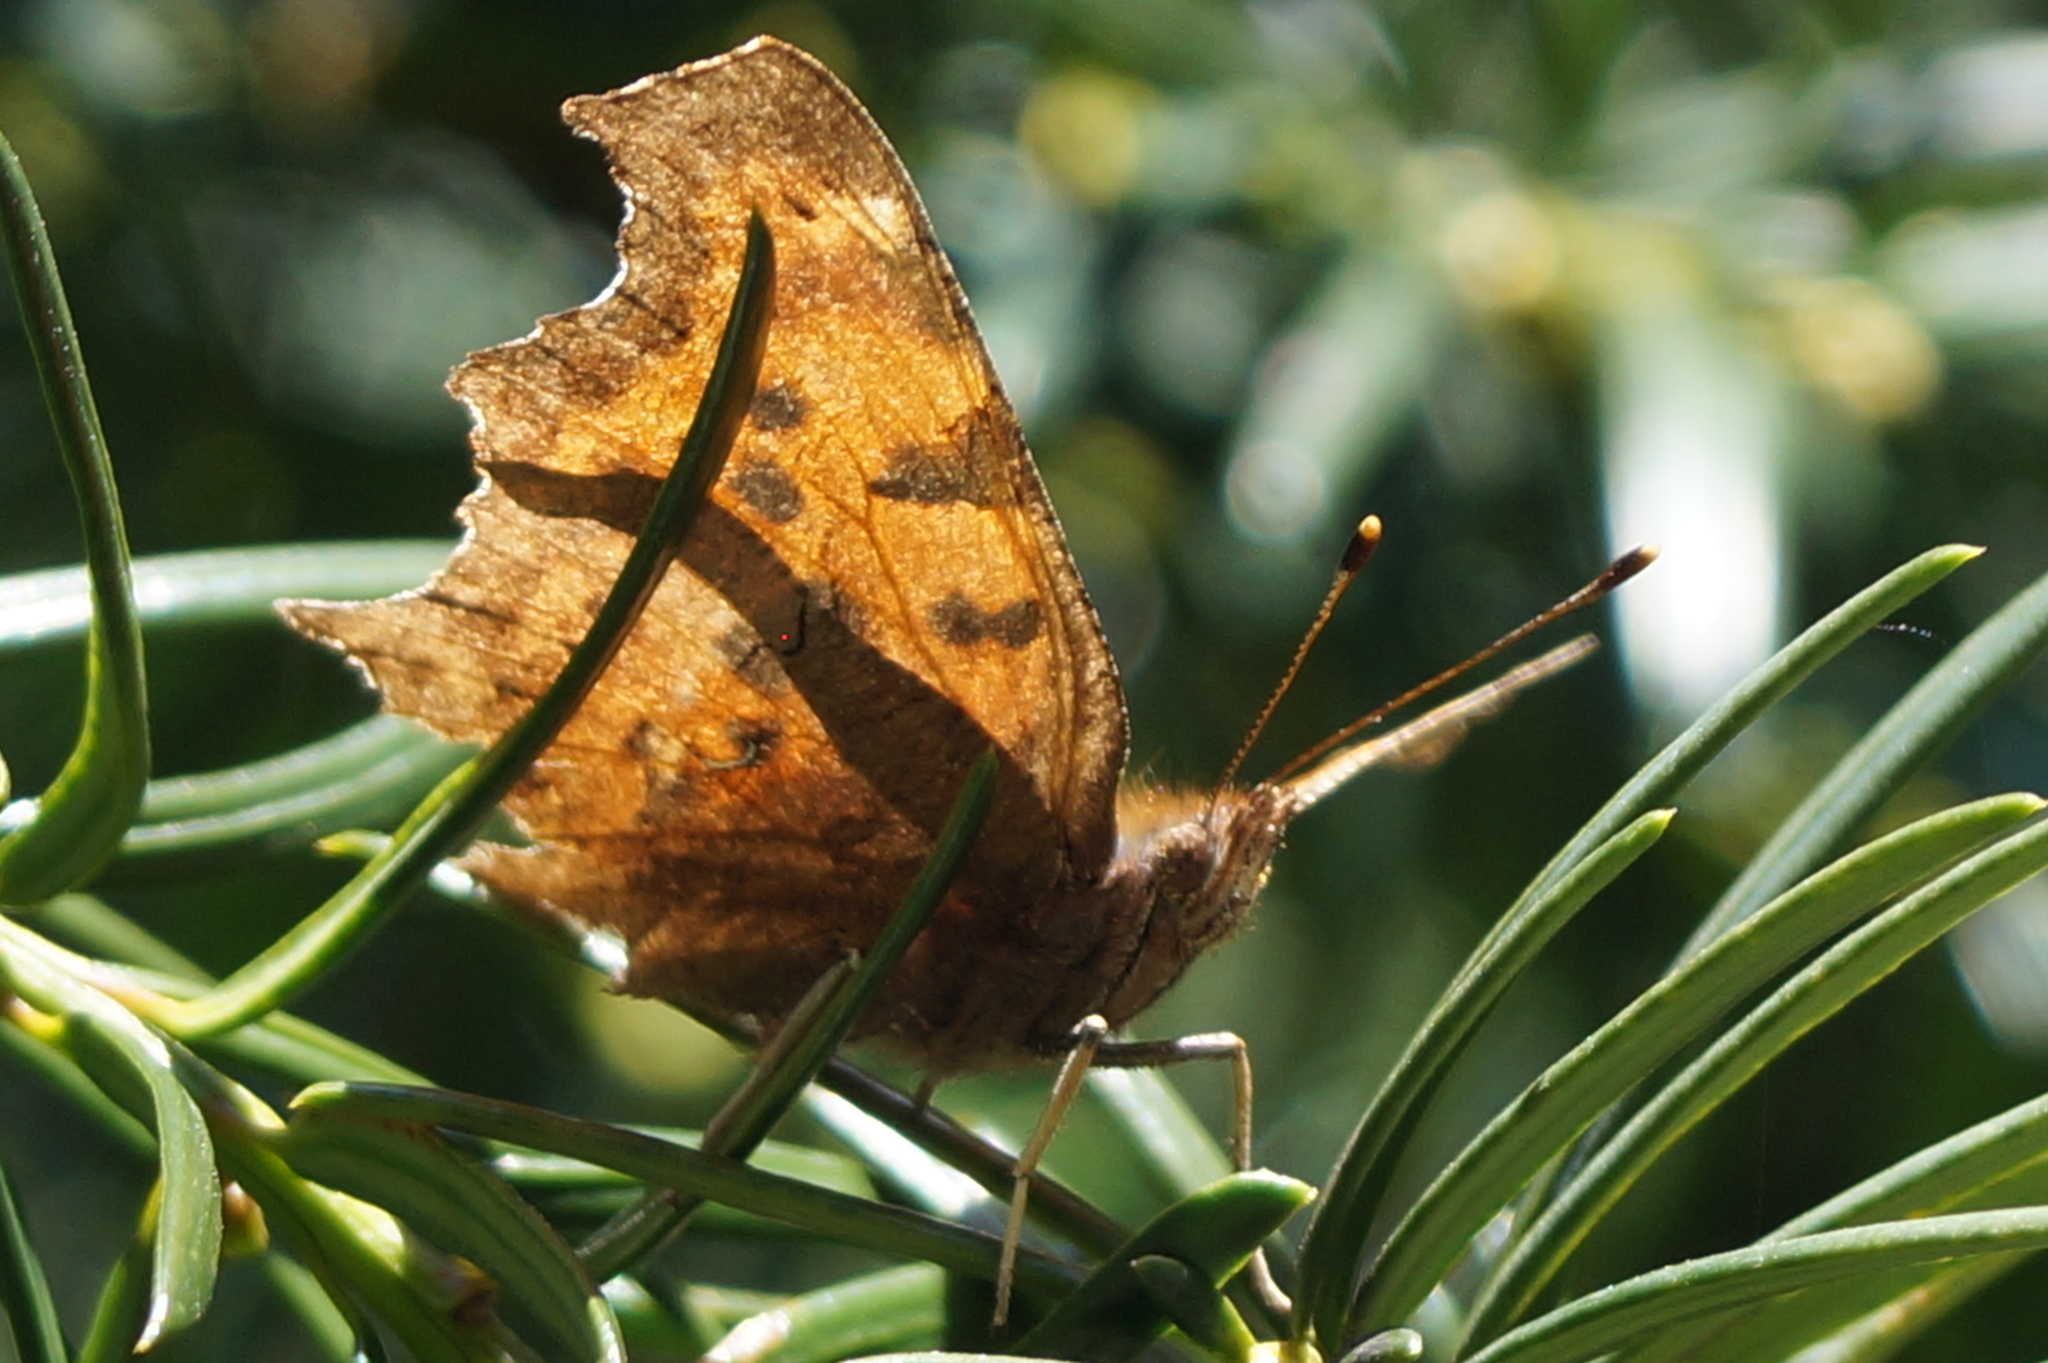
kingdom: Animalia
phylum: Arthropoda
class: Insecta
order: Lepidoptera
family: Nymphalidae
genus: Polygonia
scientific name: Polygonia c-album
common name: Comma
